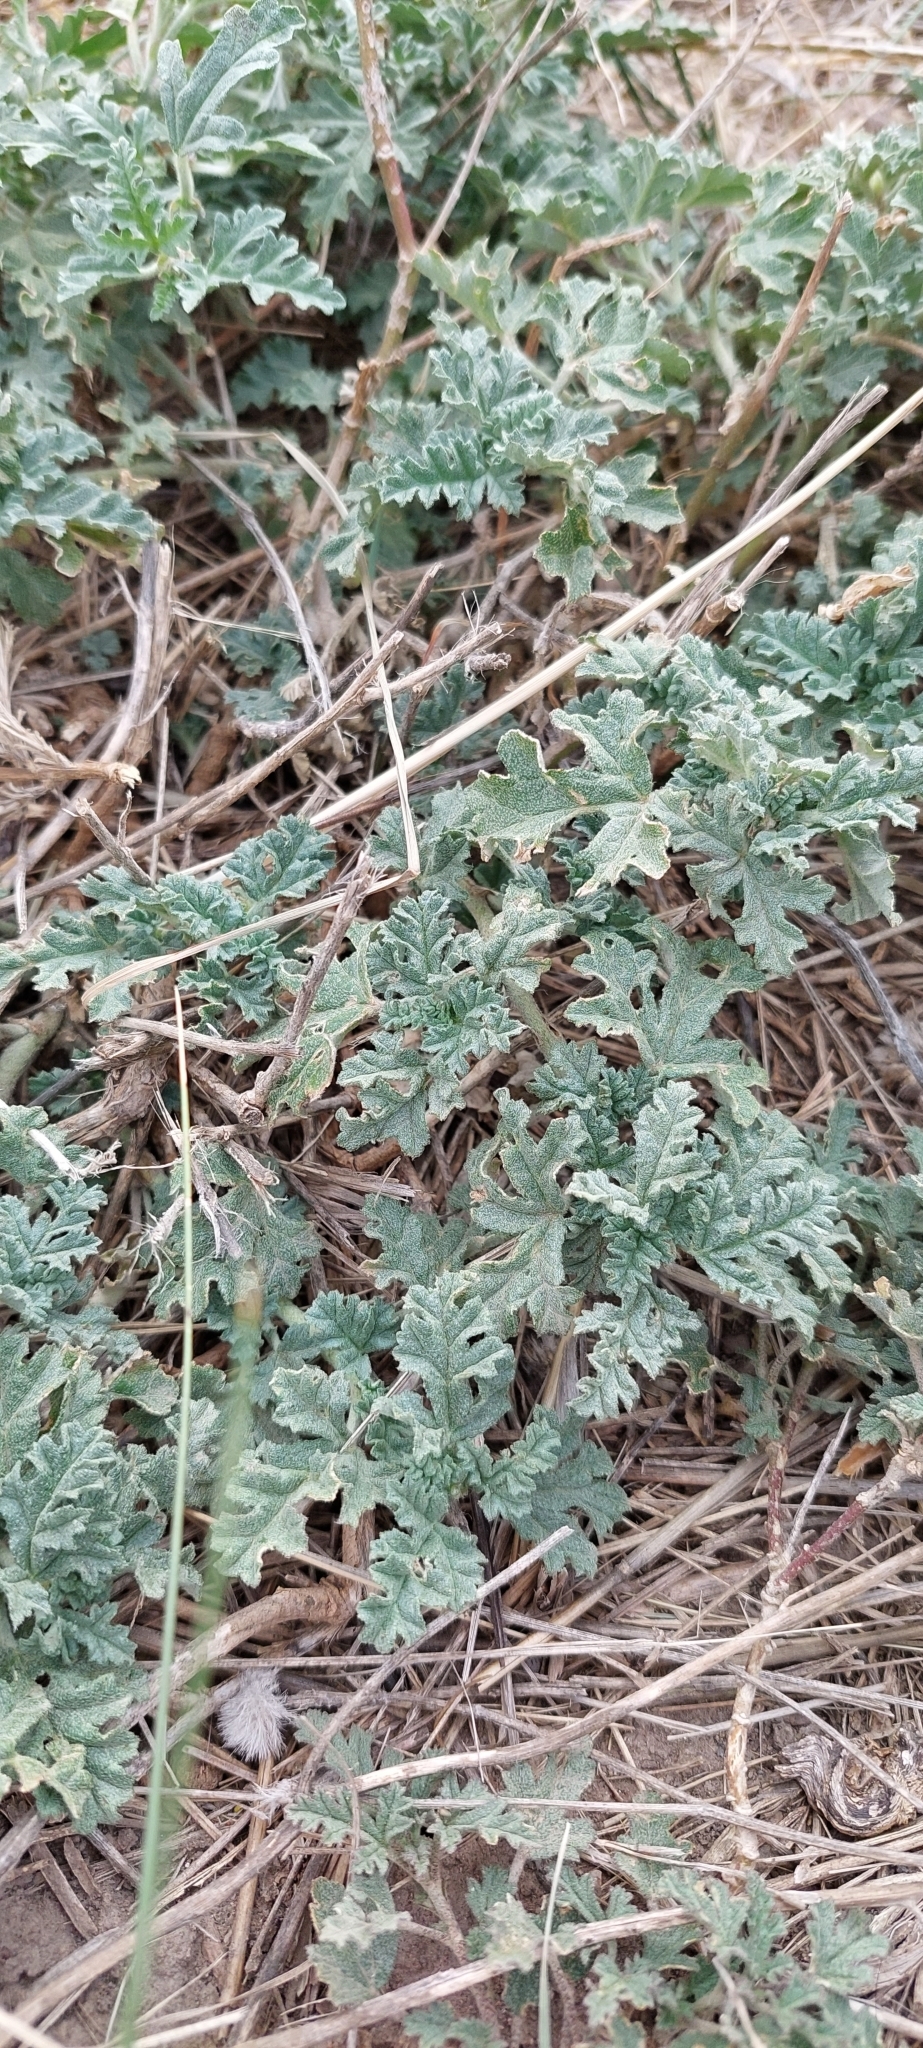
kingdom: Plantae
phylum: Tracheophyta
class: Magnoliopsida
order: Malvales
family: Malvaceae
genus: Sphaeralcea
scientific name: Sphaeralcea mendocina
